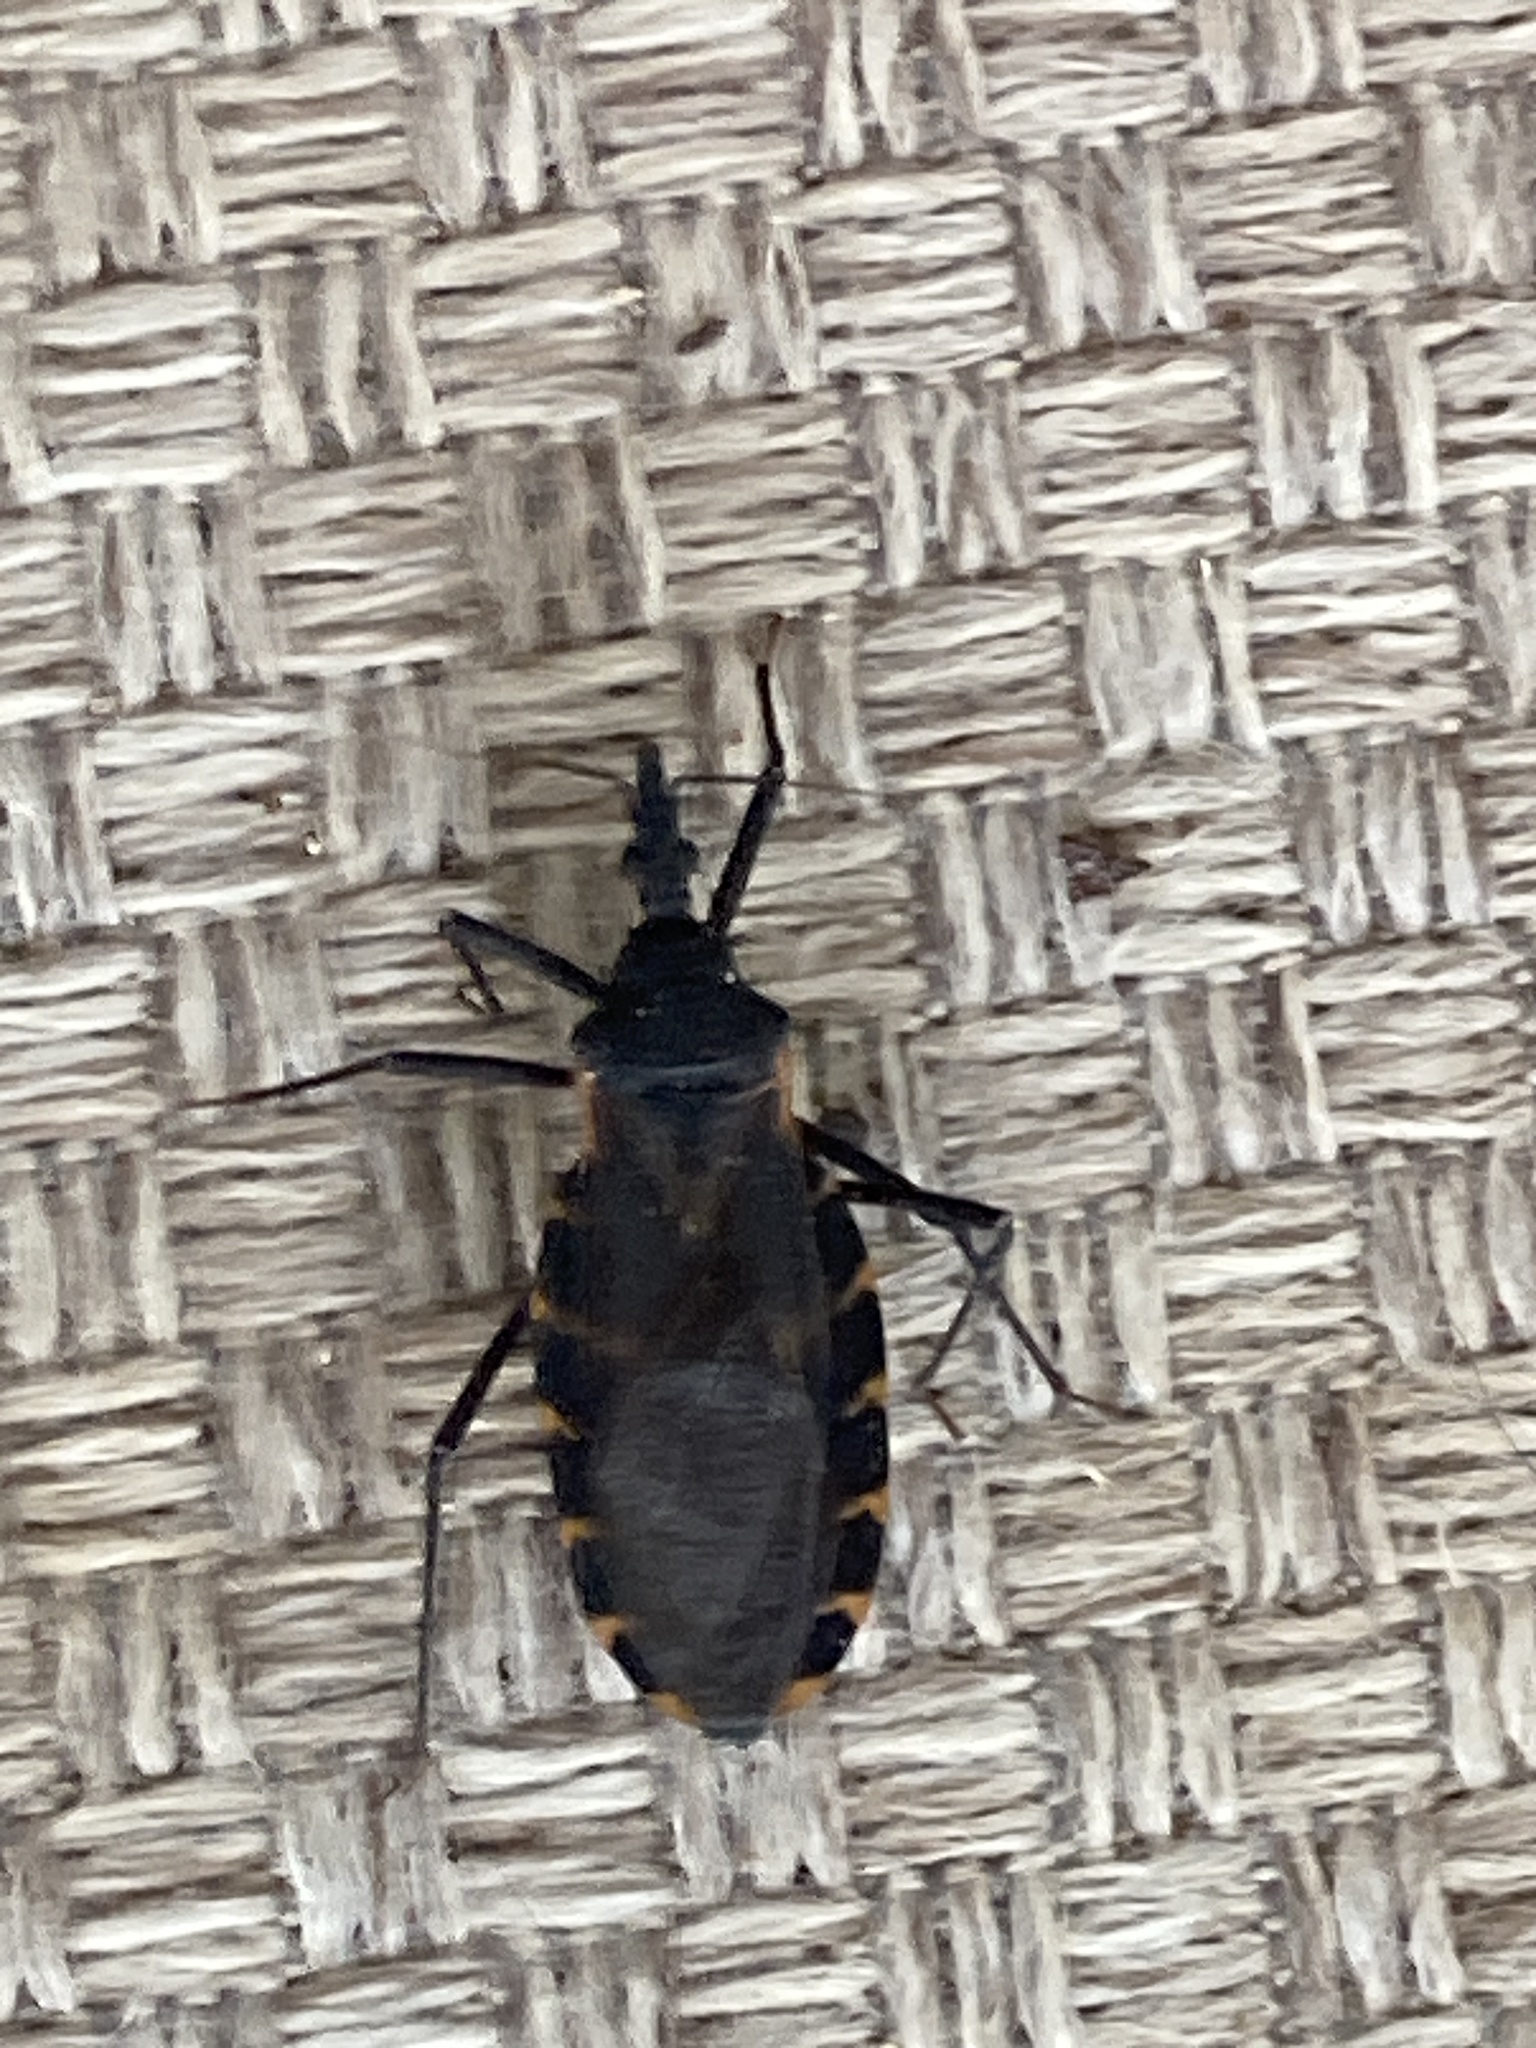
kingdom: Animalia
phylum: Arthropoda
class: Insecta
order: Hemiptera
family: Reduviidae
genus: Triatoma
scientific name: Triatoma gerstaeckeri
